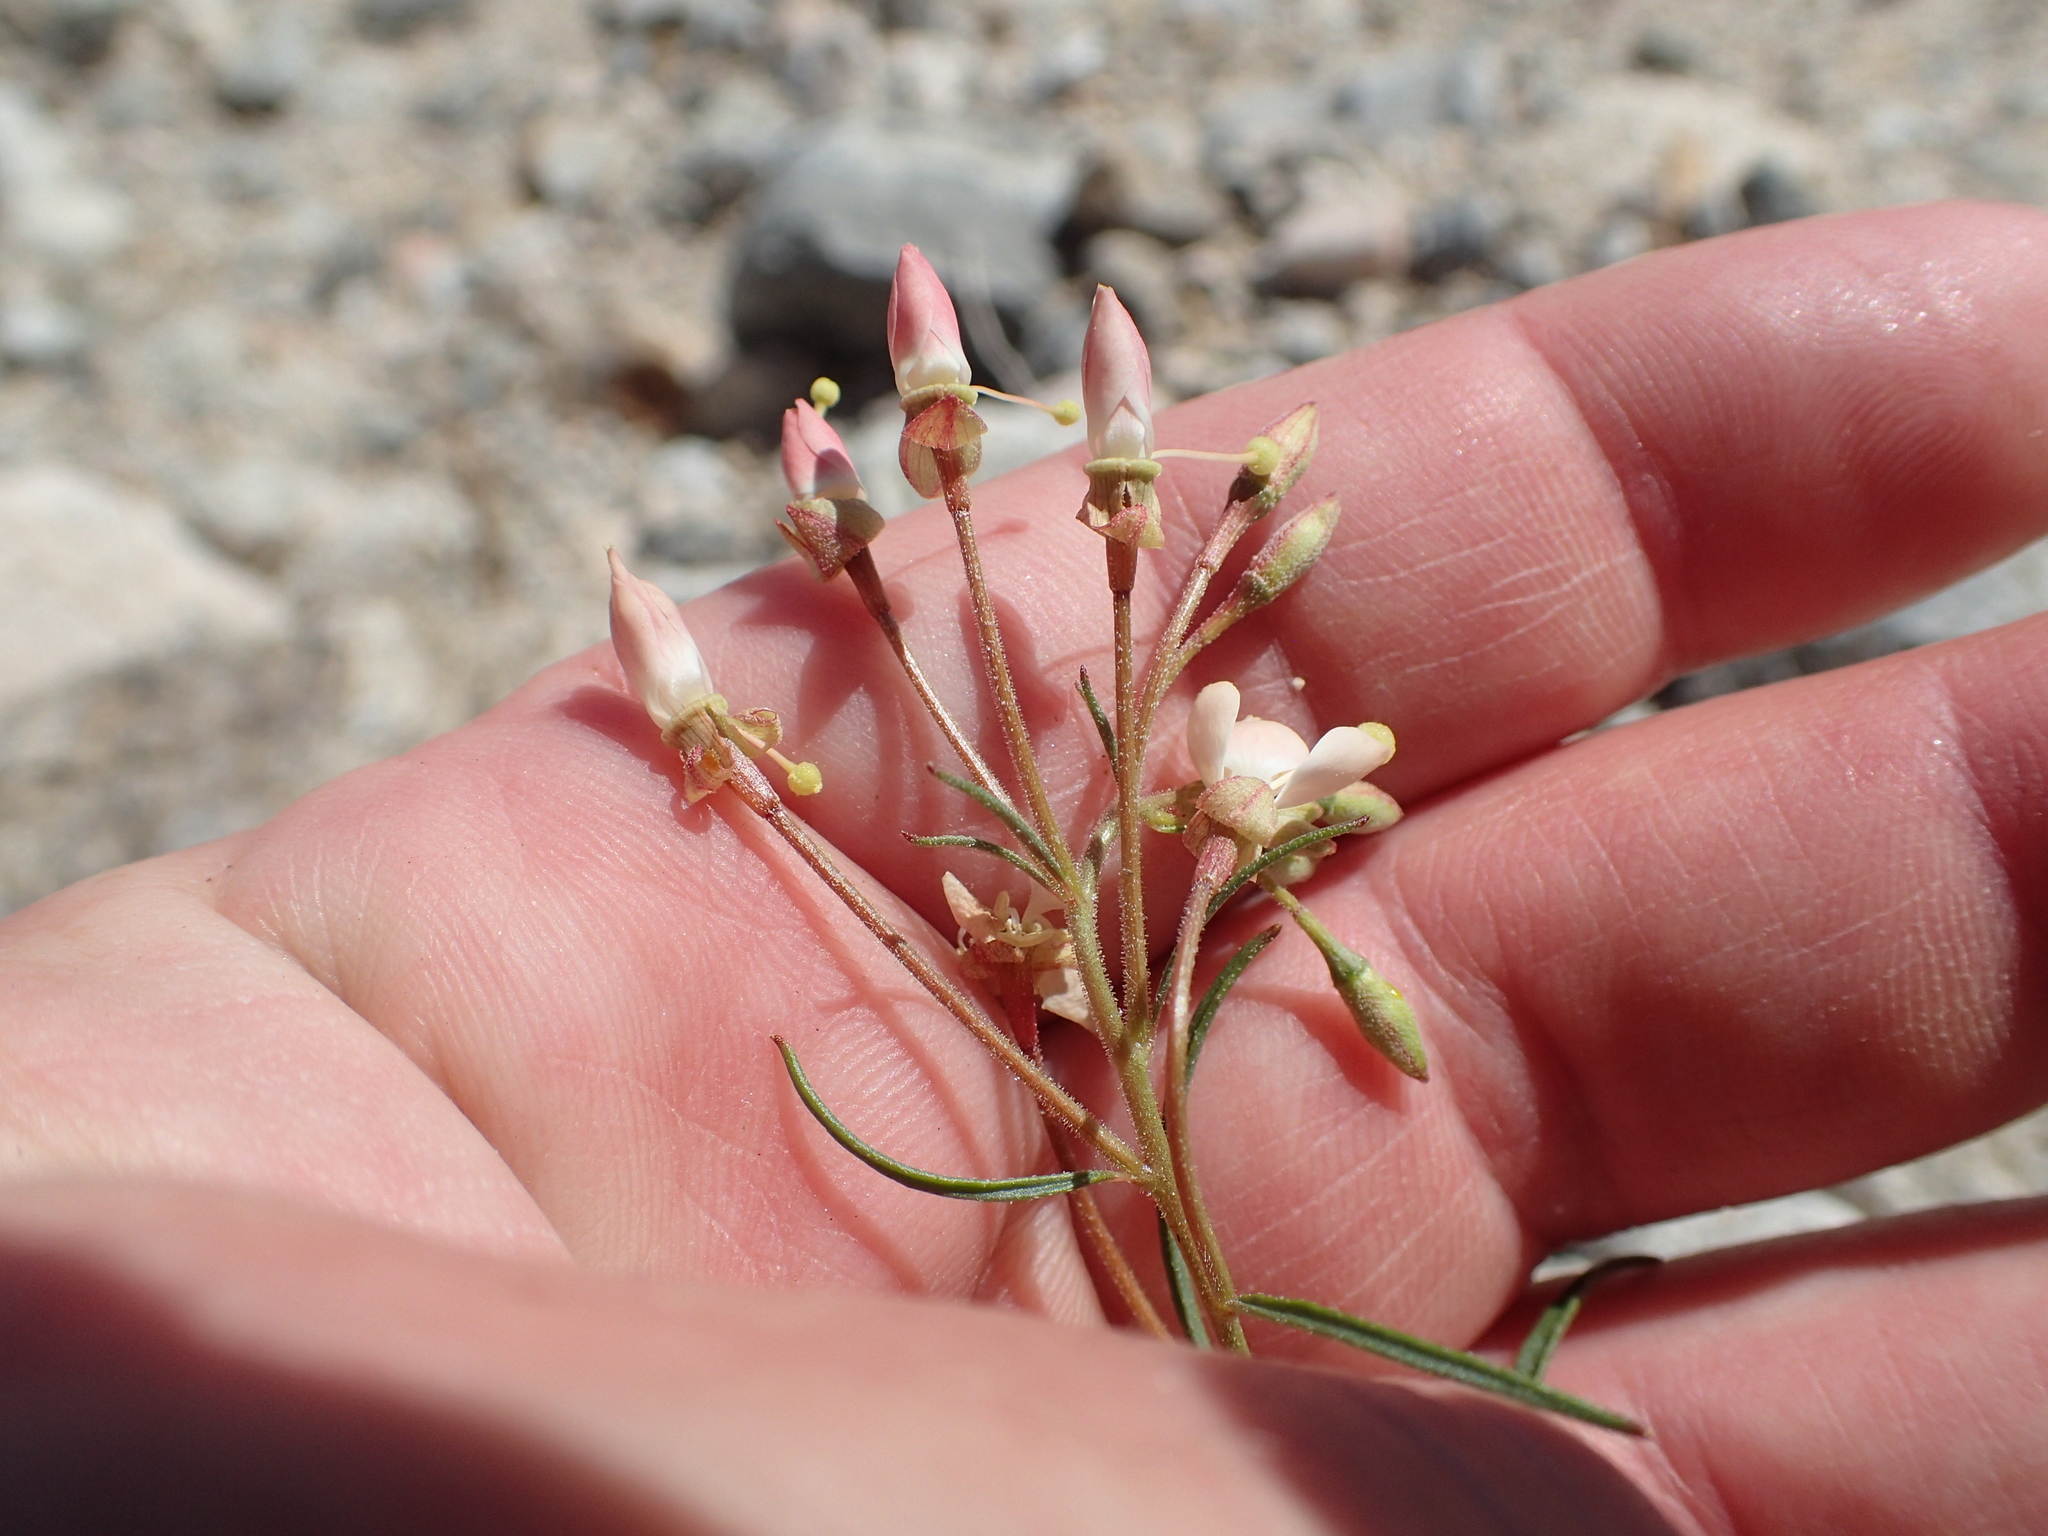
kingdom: Plantae
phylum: Tracheophyta
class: Magnoliopsida
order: Myrtales
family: Onagraceae
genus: Eremothera
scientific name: Eremothera refracta
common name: Narrowleaf suncup
